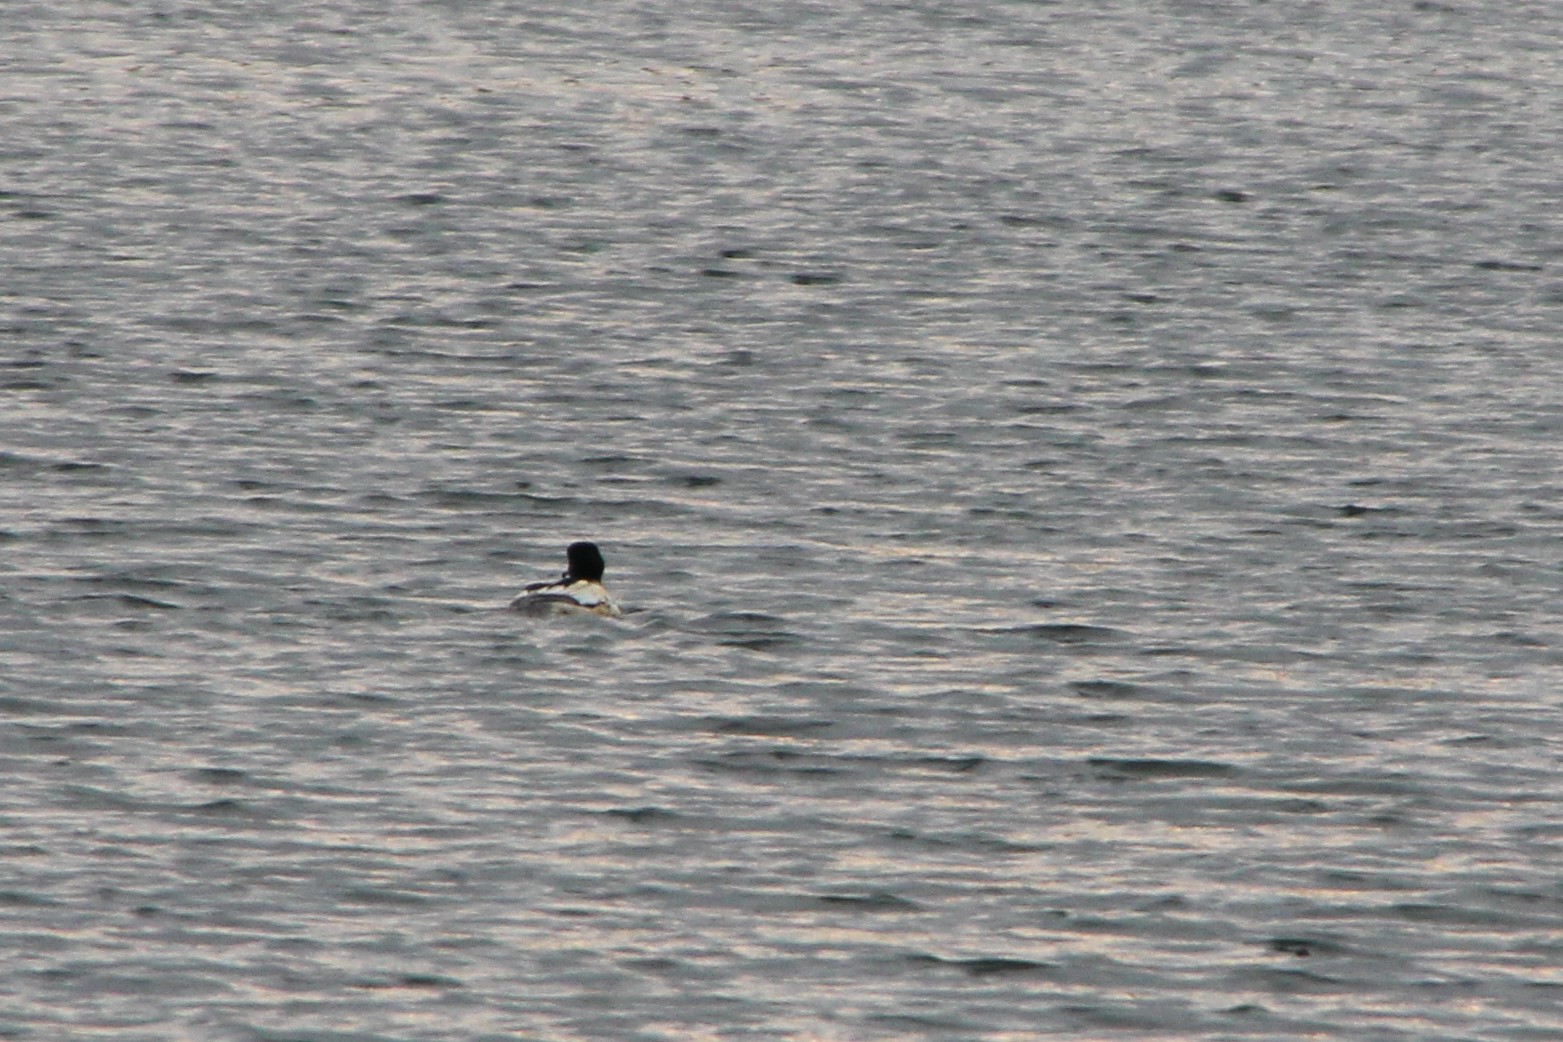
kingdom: Animalia
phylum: Chordata
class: Aves
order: Anseriformes
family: Anatidae
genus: Mergus
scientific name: Mergus merganser
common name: Common merganser
